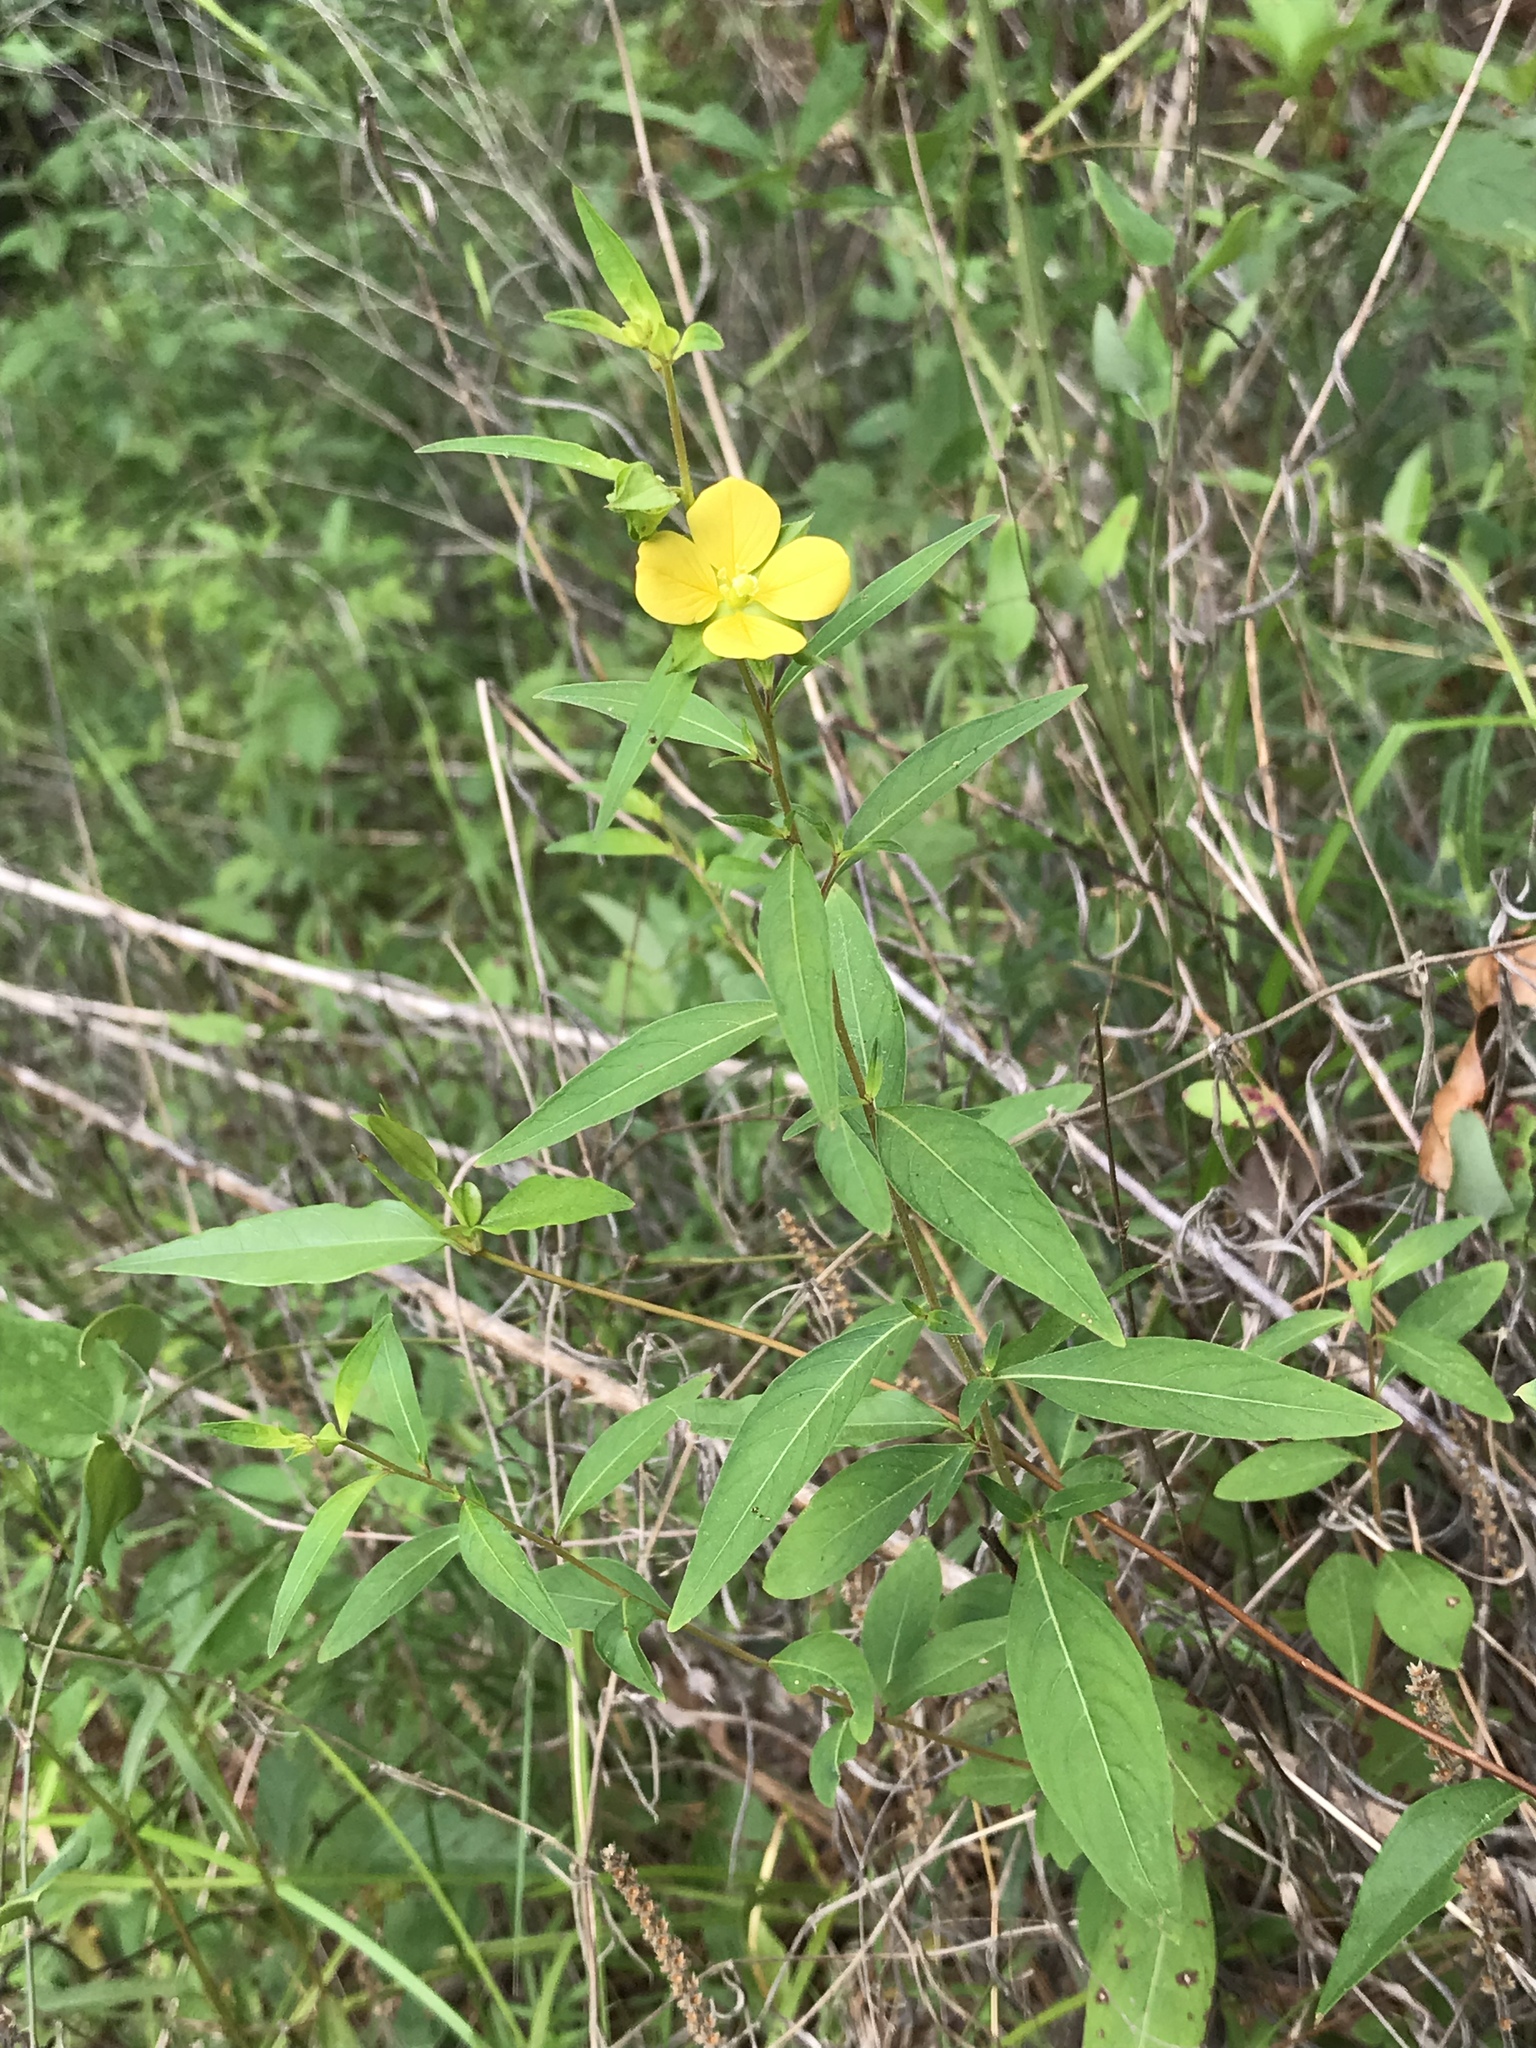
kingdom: Plantae
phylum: Tracheophyta
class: Magnoliopsida
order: Myrtales
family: Onagraceae
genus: Ludwigia
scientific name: Ludwigia alternifolia
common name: Rattlebox
